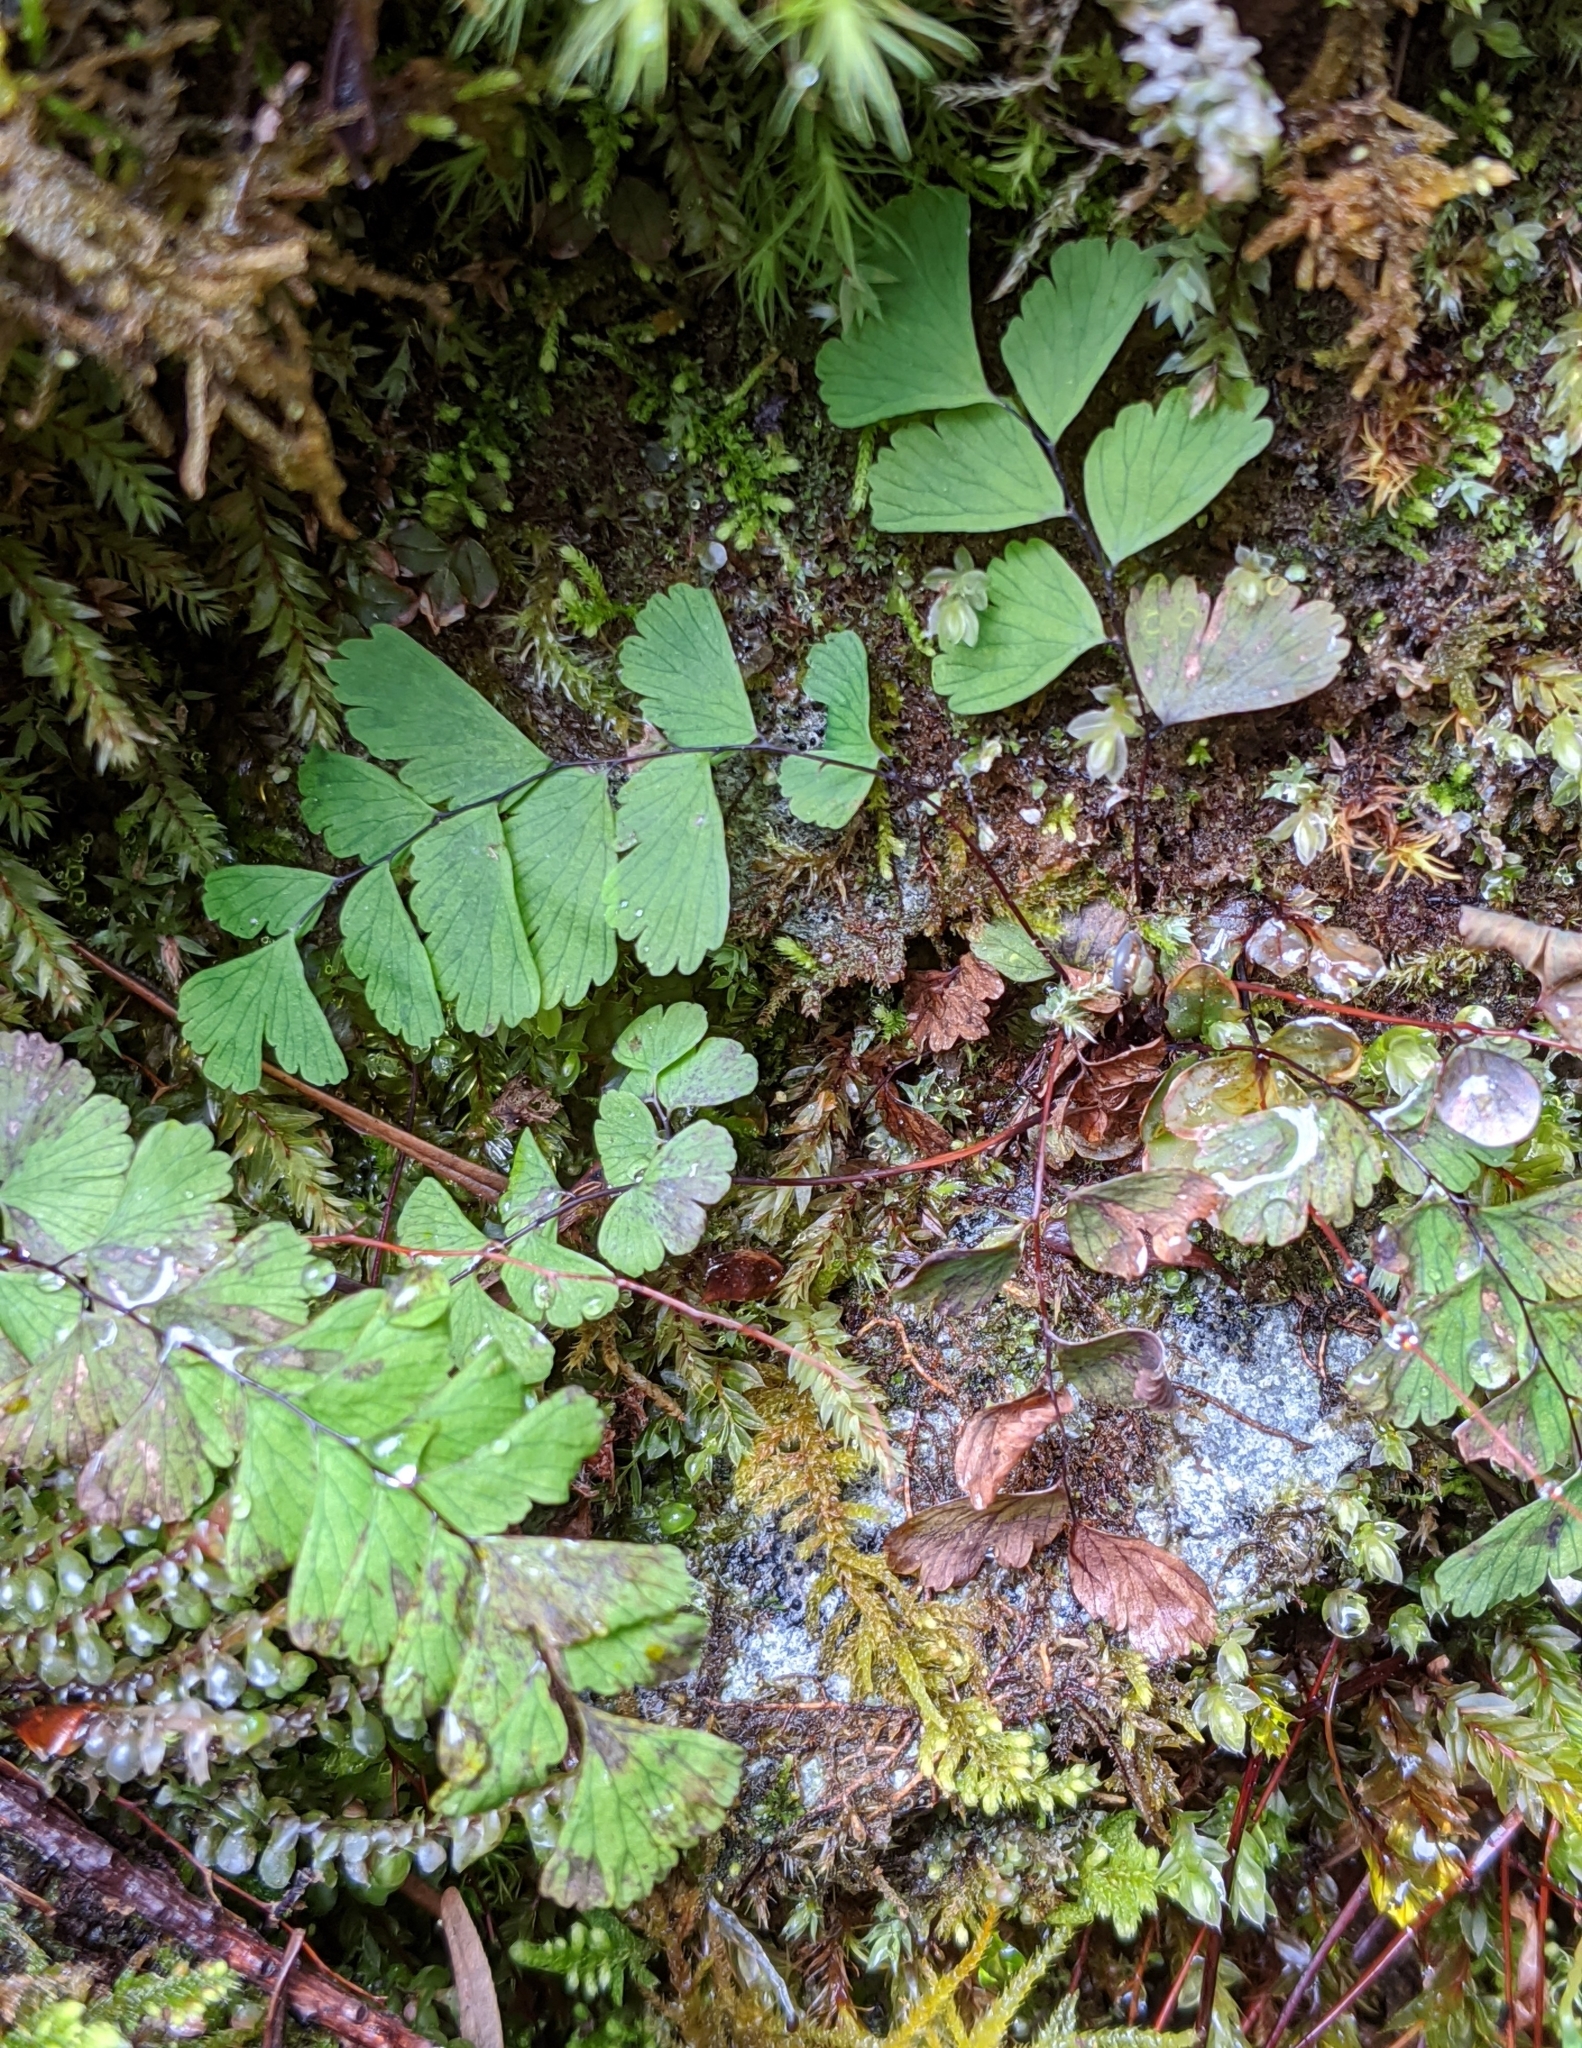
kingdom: Plantae
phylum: Tracheophyta
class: Polypodiopsida
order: Polypodiales
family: Pteridaceae
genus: Adiantum
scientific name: Adiantum aleuticum
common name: Aleutian maidenhair fern
